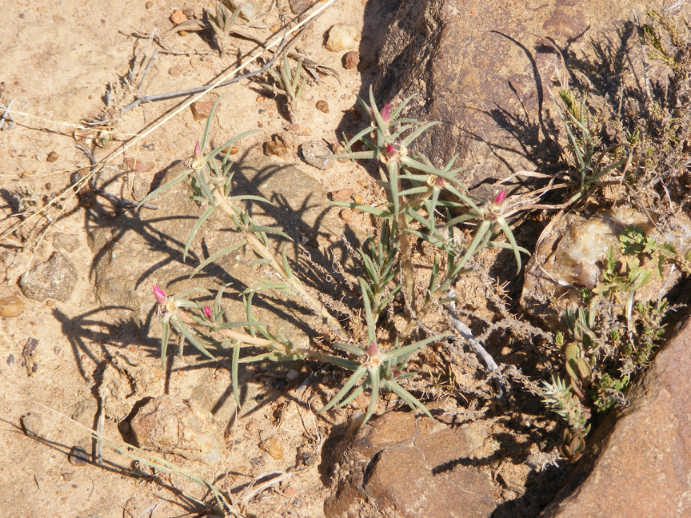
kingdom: Plantae
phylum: Tracheophyta
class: Magnoliopsida
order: Caryophyllales
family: Portulacaceae
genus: Portulaca
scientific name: Portulaca kermesina
